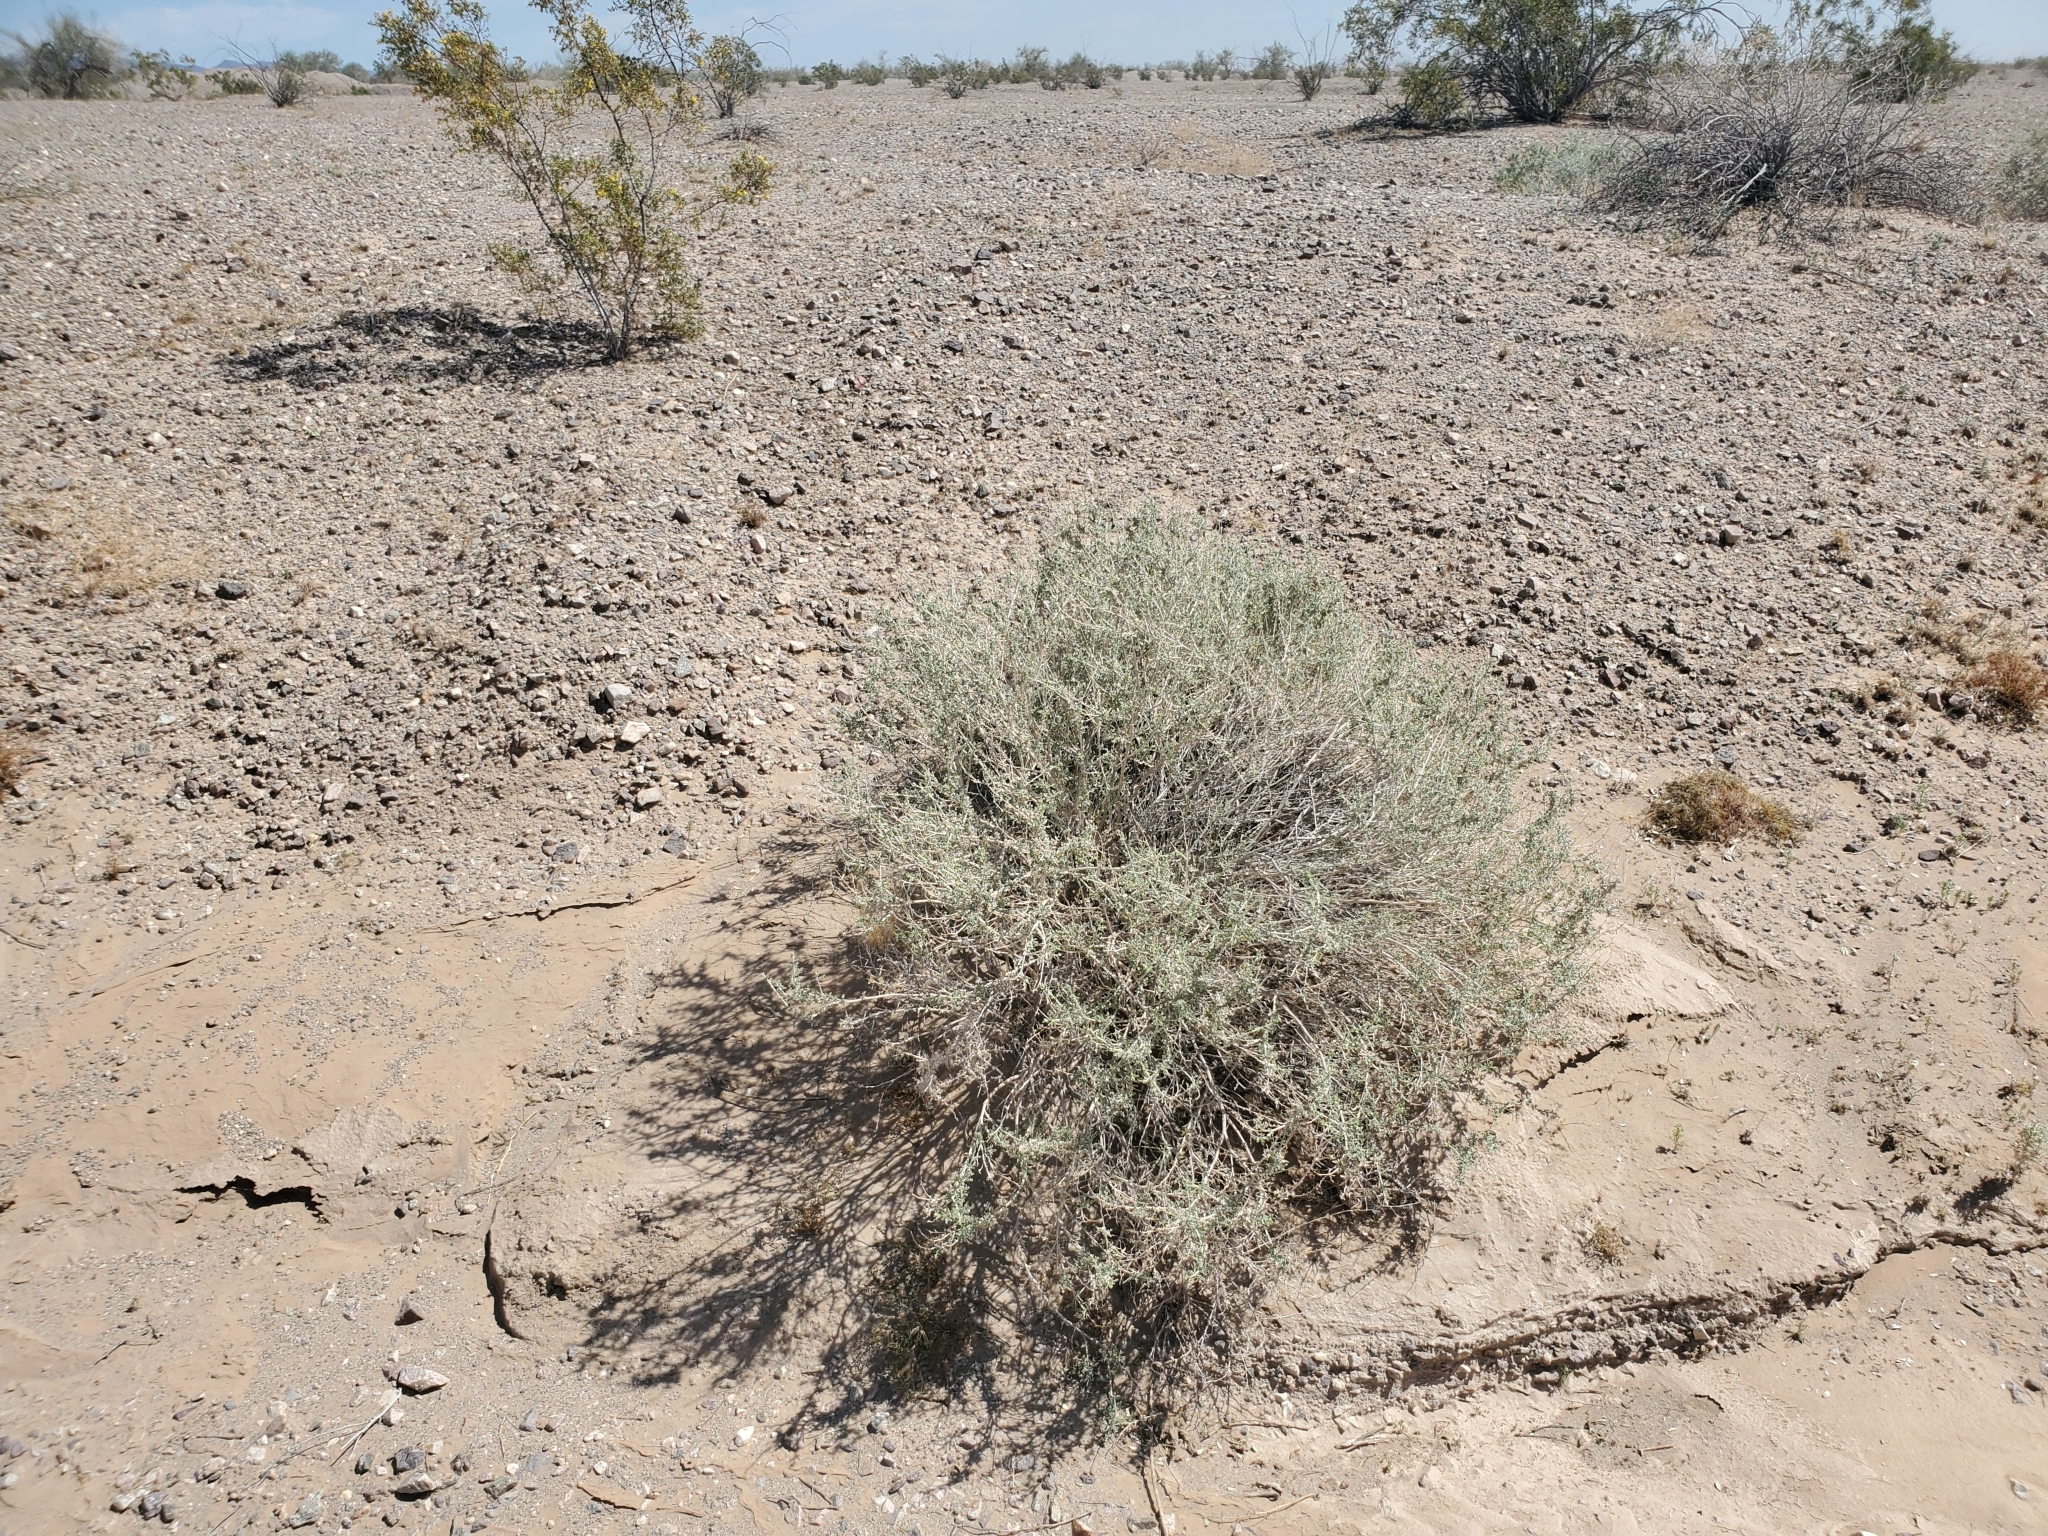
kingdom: Plantae
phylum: Tracheophyta
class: Magnoliopsida
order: Asterales
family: Asteraceae
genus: Ambrosia
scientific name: Ambrosia dumosa
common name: Bur-sage
